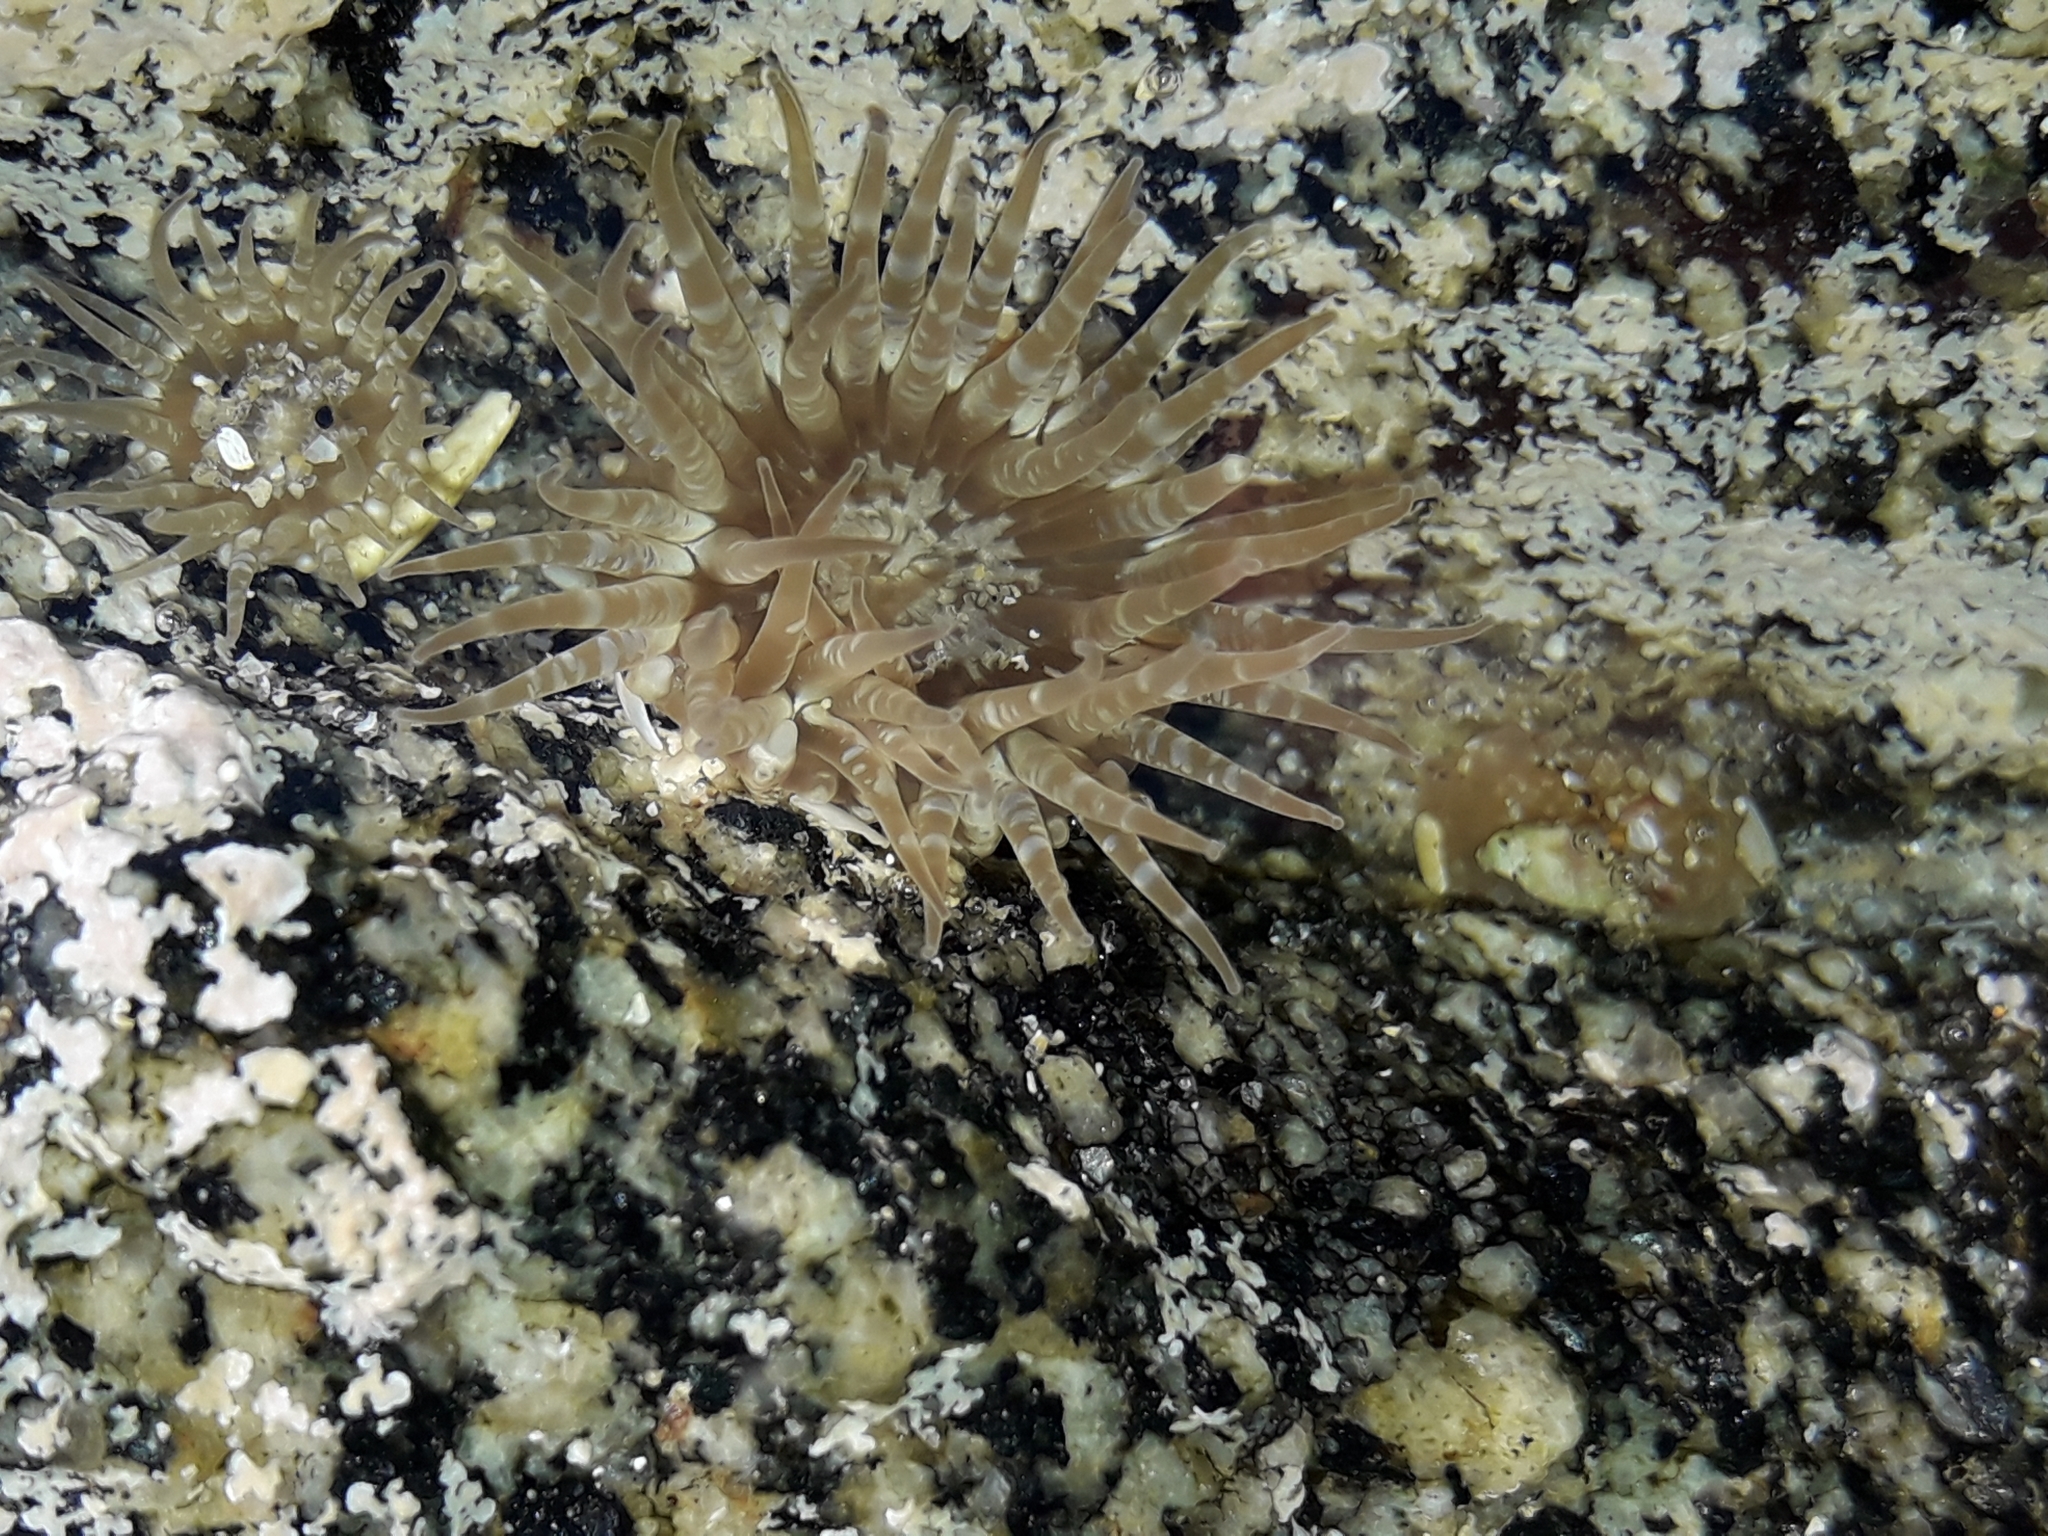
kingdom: Animalia
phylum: Cnidaria
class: Anthozoa
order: Actiniaria
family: Actiniidae
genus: Anthopleura
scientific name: Anthopleura hermaphroditica
